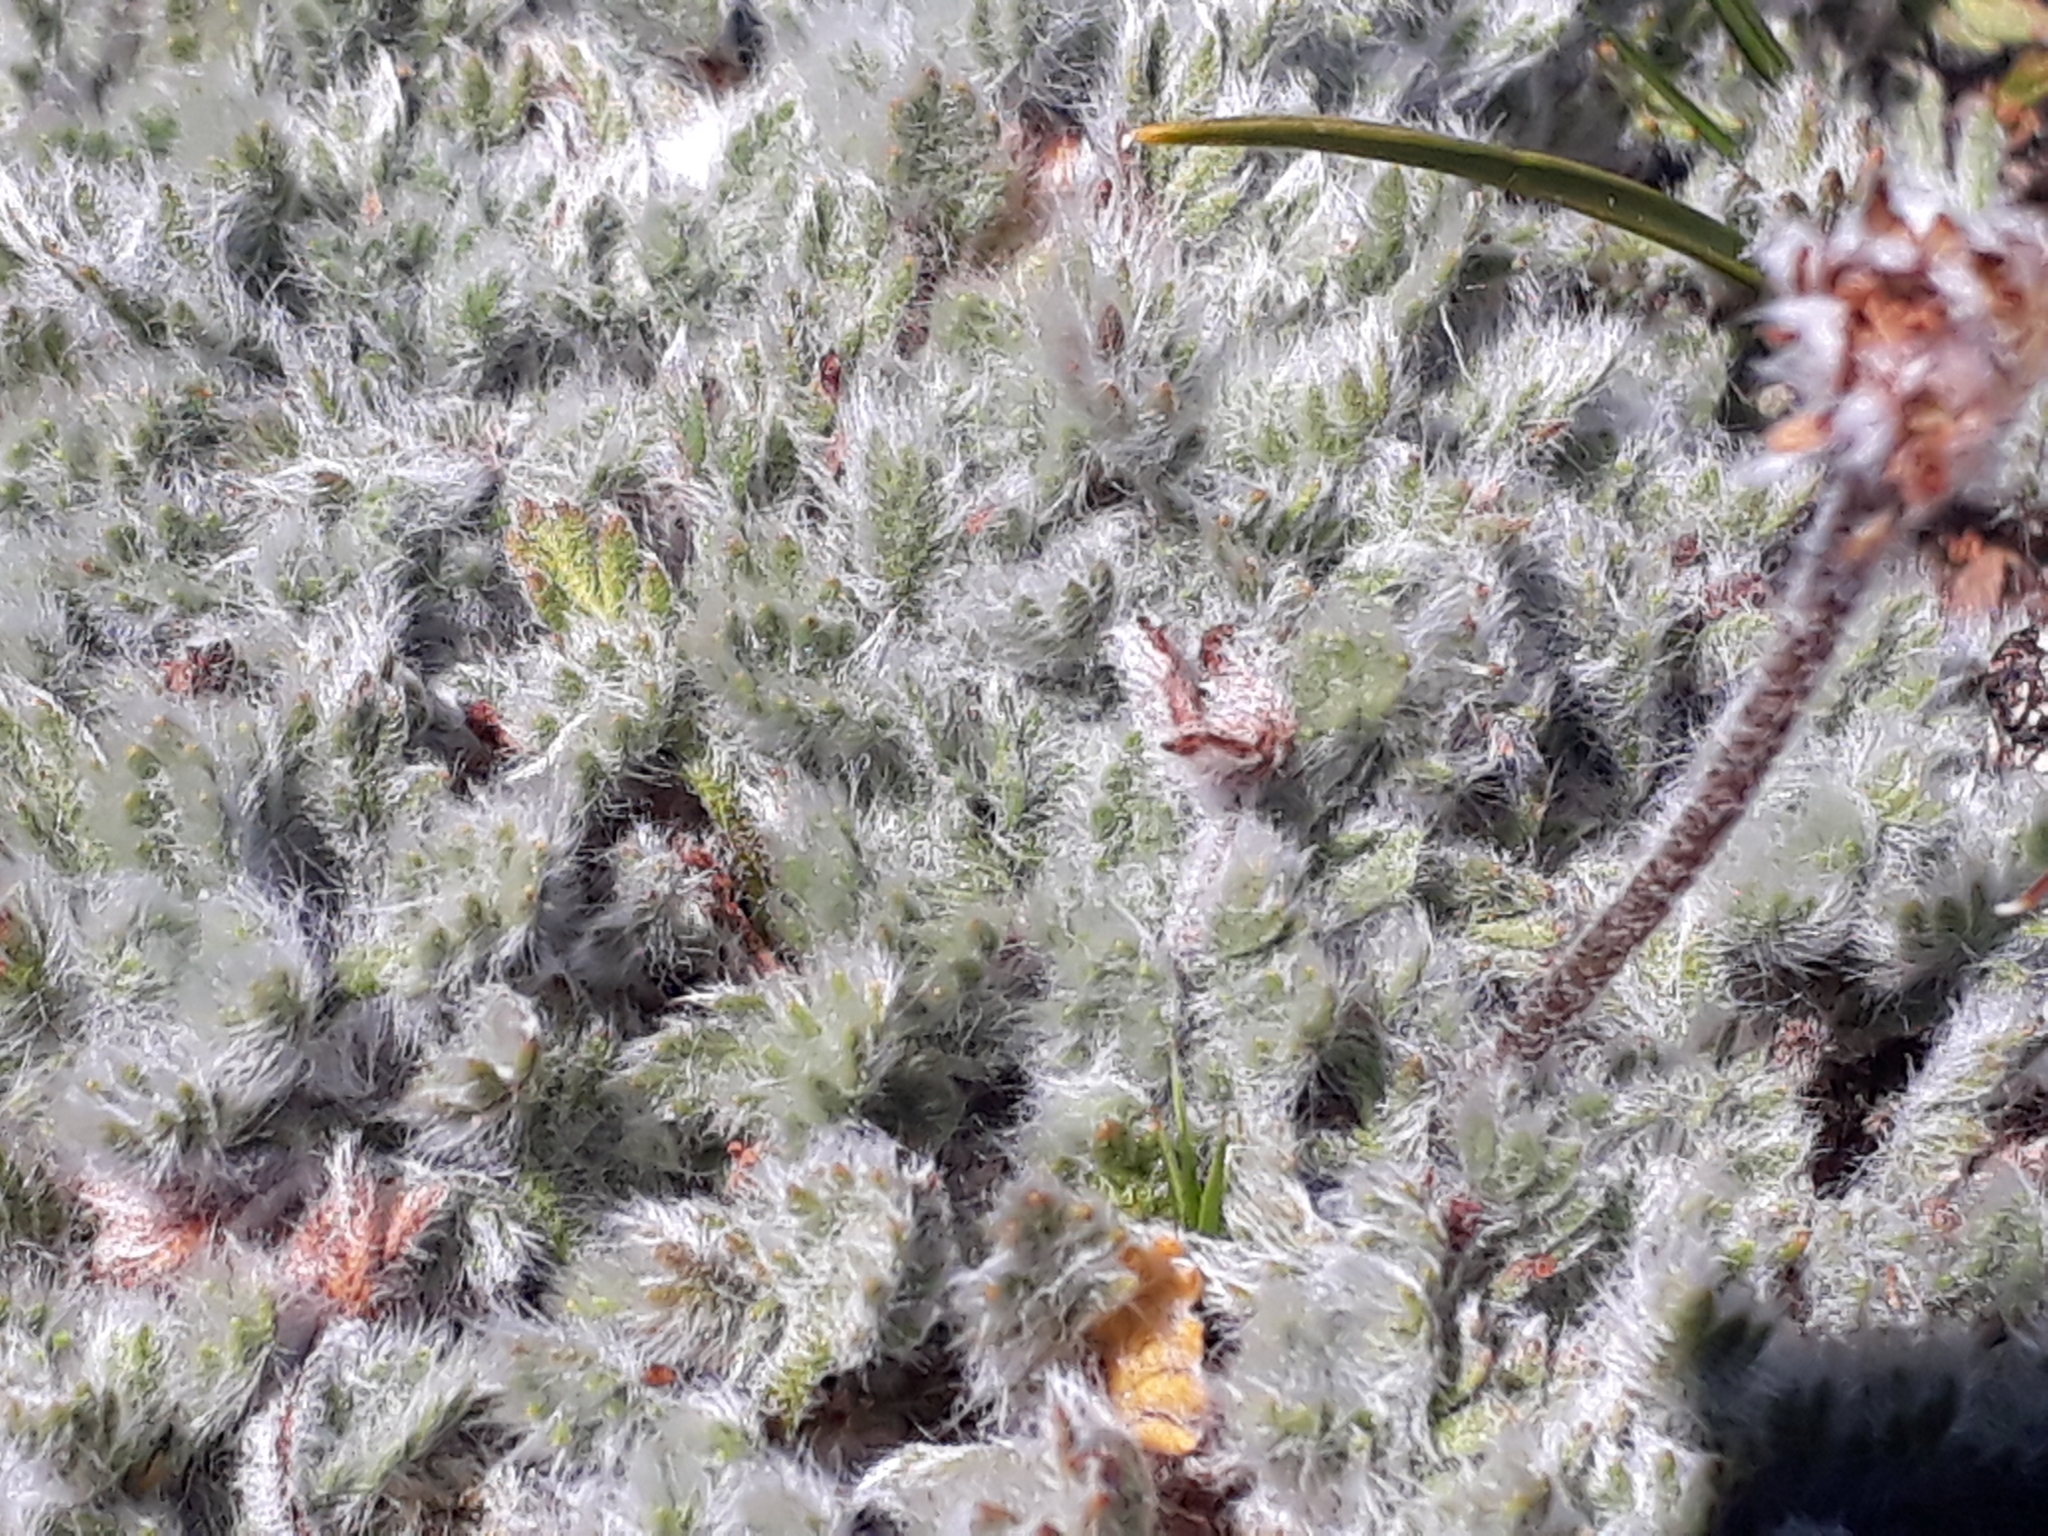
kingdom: Plantae
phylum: Tracheophyta
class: Magnoliopsida
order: Asterales
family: Asteraceae
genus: Leptinella
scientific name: Leptinella albida
